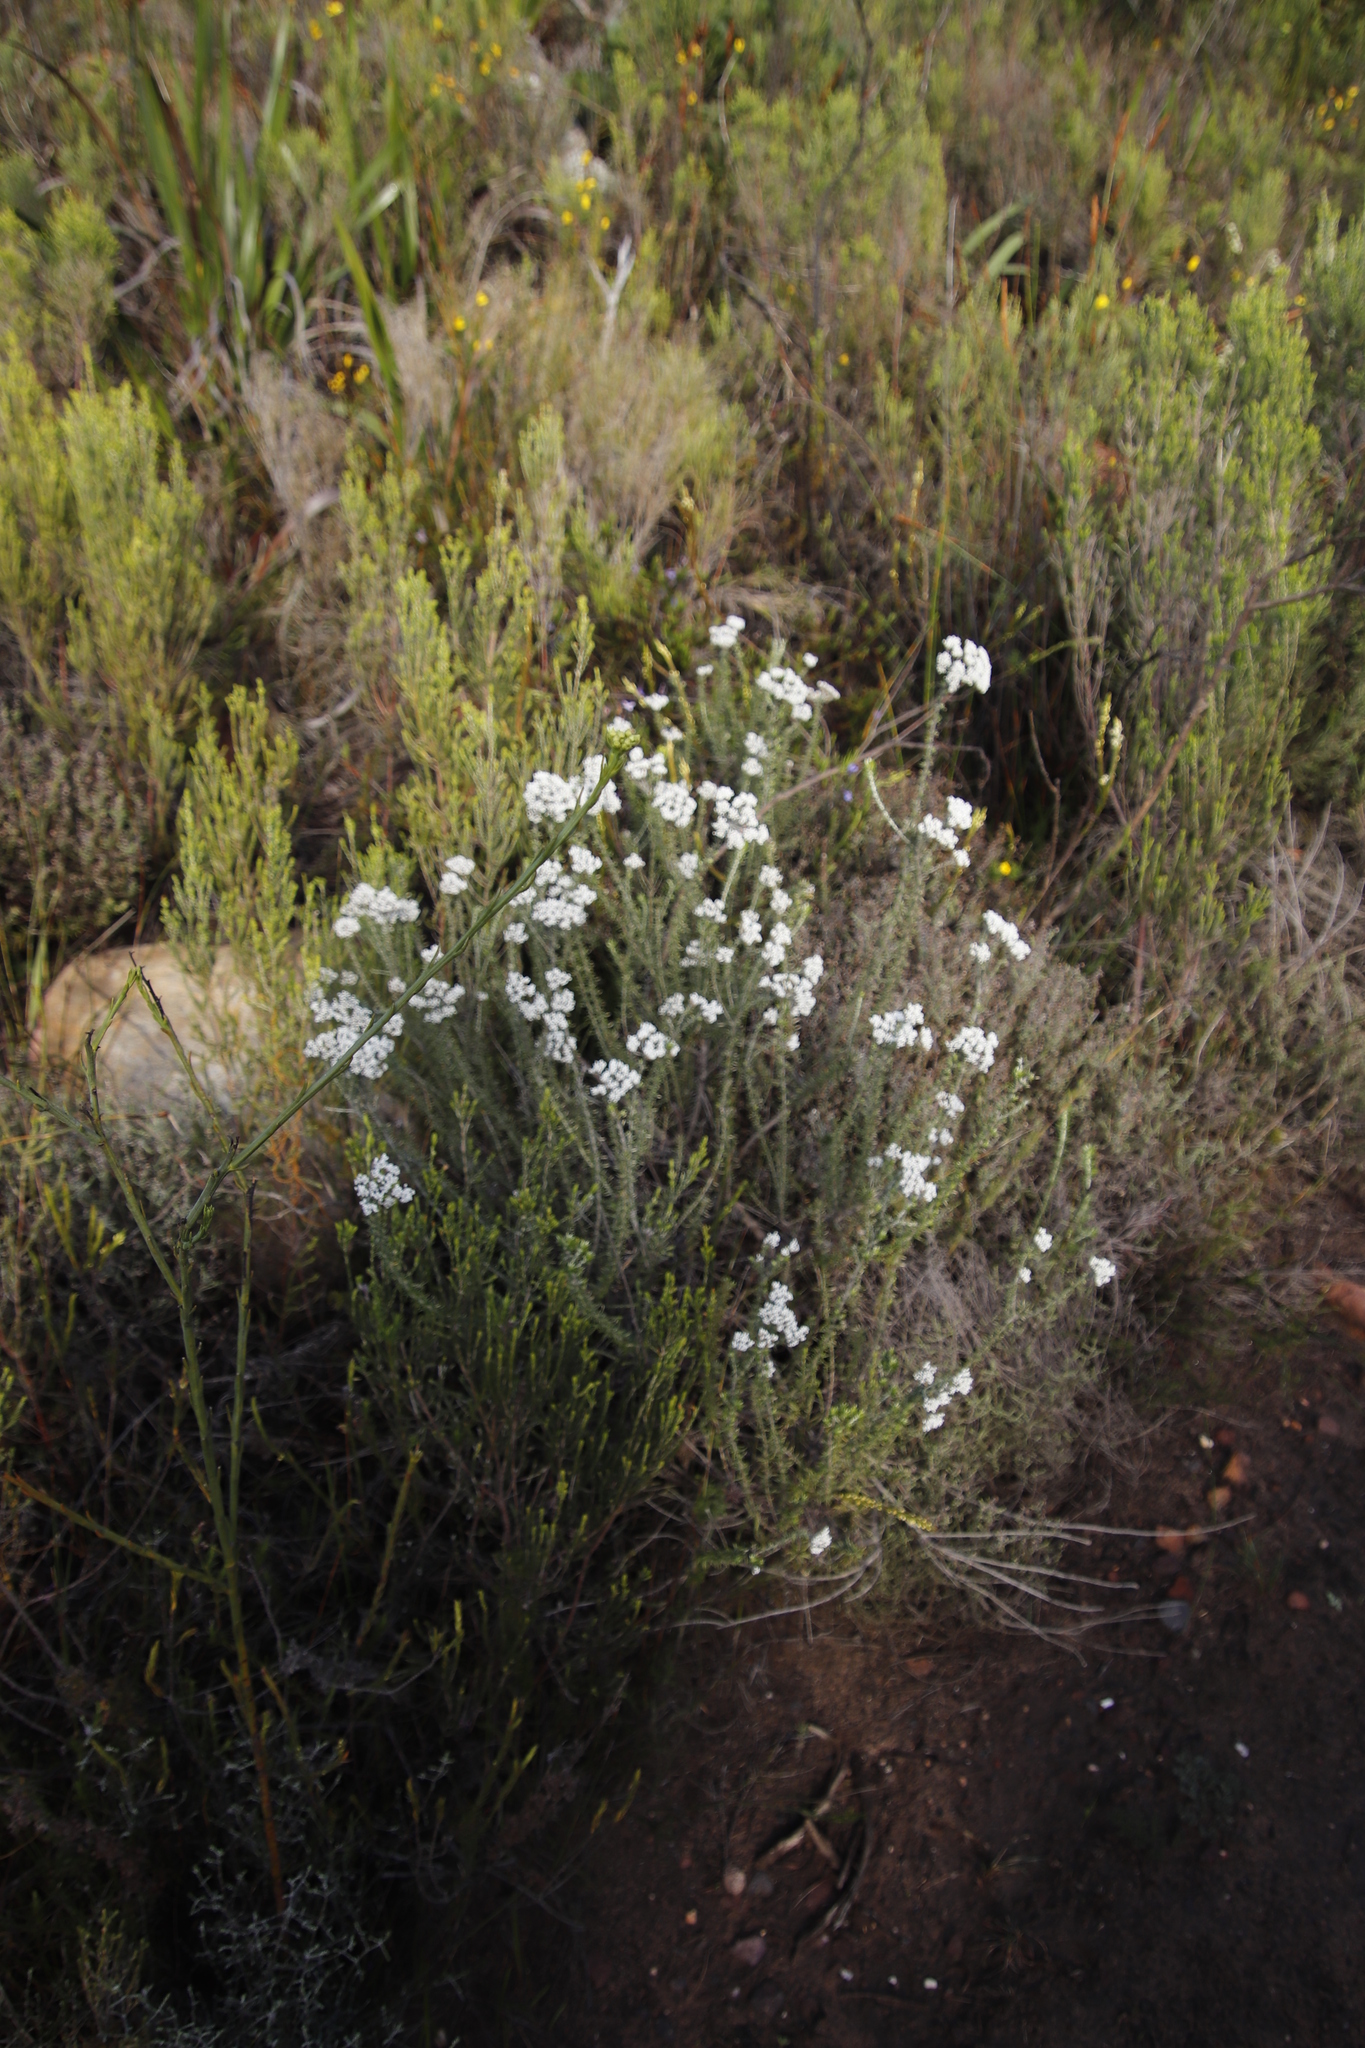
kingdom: Plantae
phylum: Tracheophyta
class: Magnoliopsida
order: Asterales
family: Asteraceae
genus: Metalasia
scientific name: Metalasia densa
